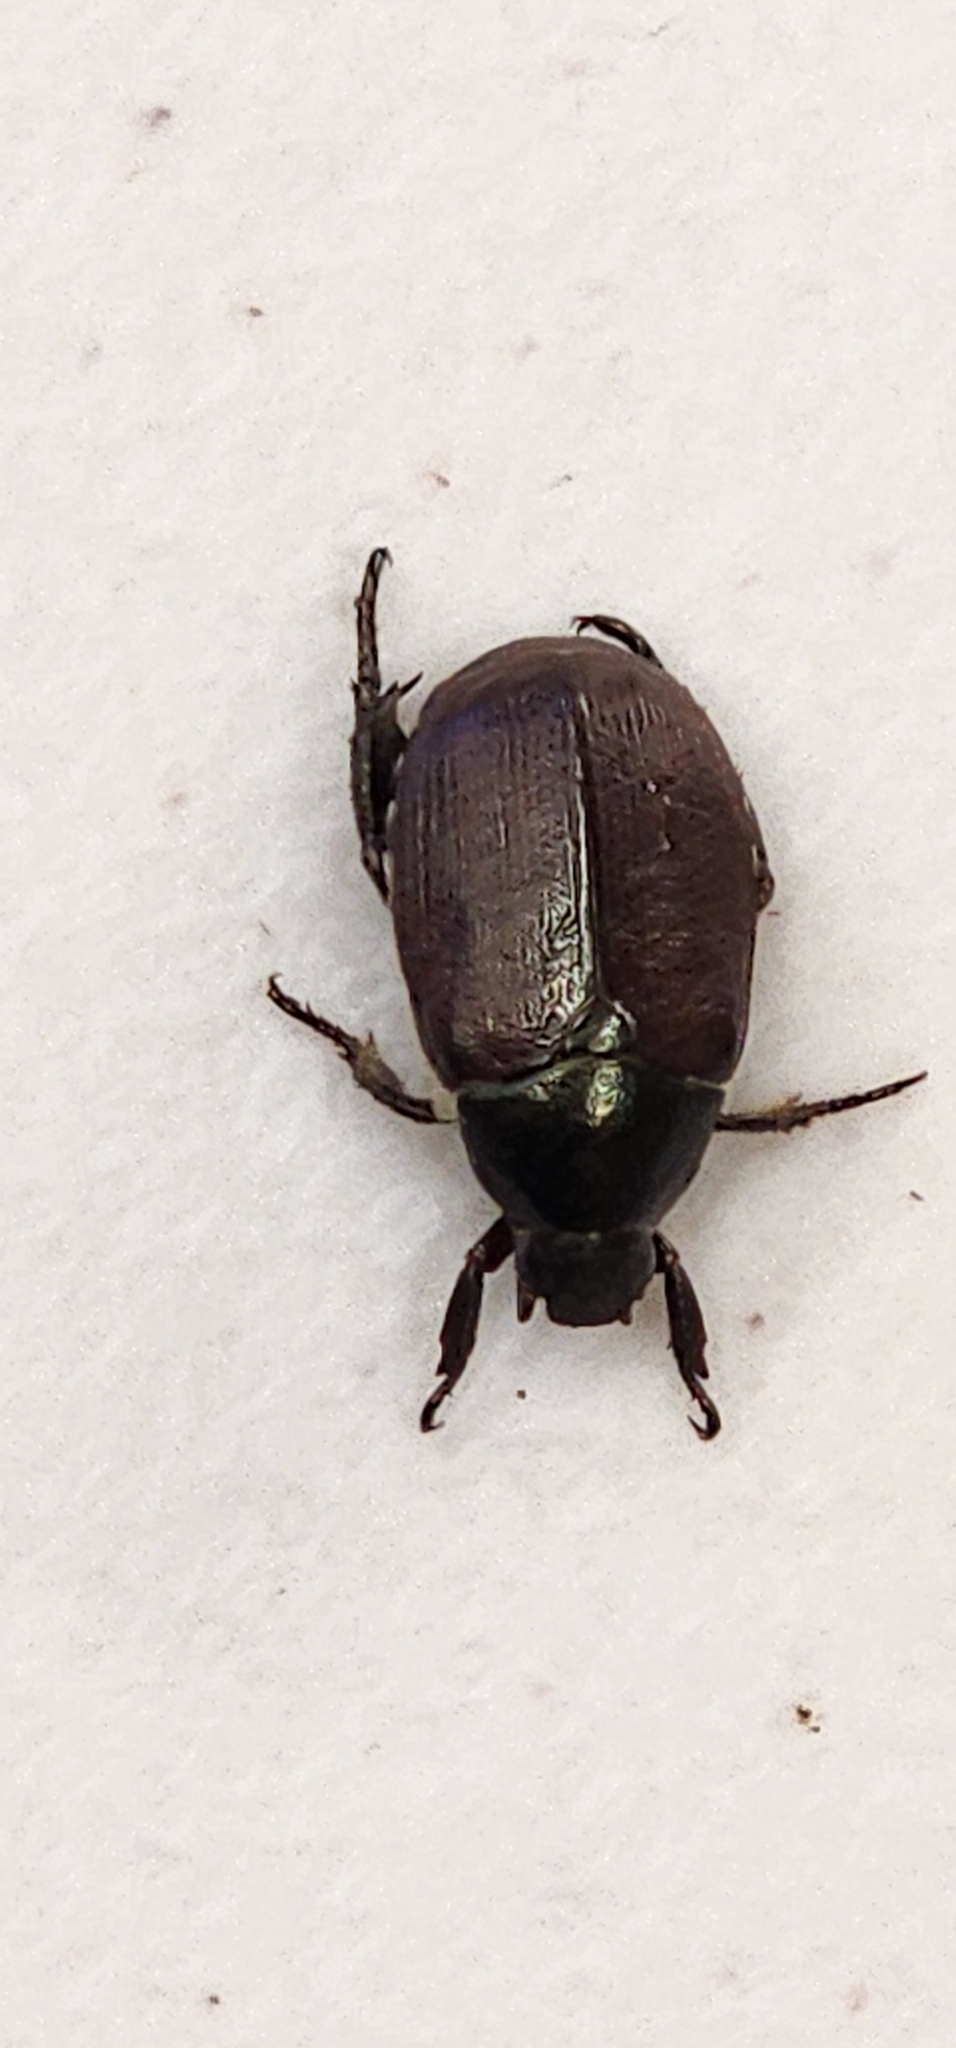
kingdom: Animalia
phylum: Arthropoda
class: Insecta
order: Coleoptera
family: Scarabaeidae
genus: Anomala
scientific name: Anomala sulcatula
